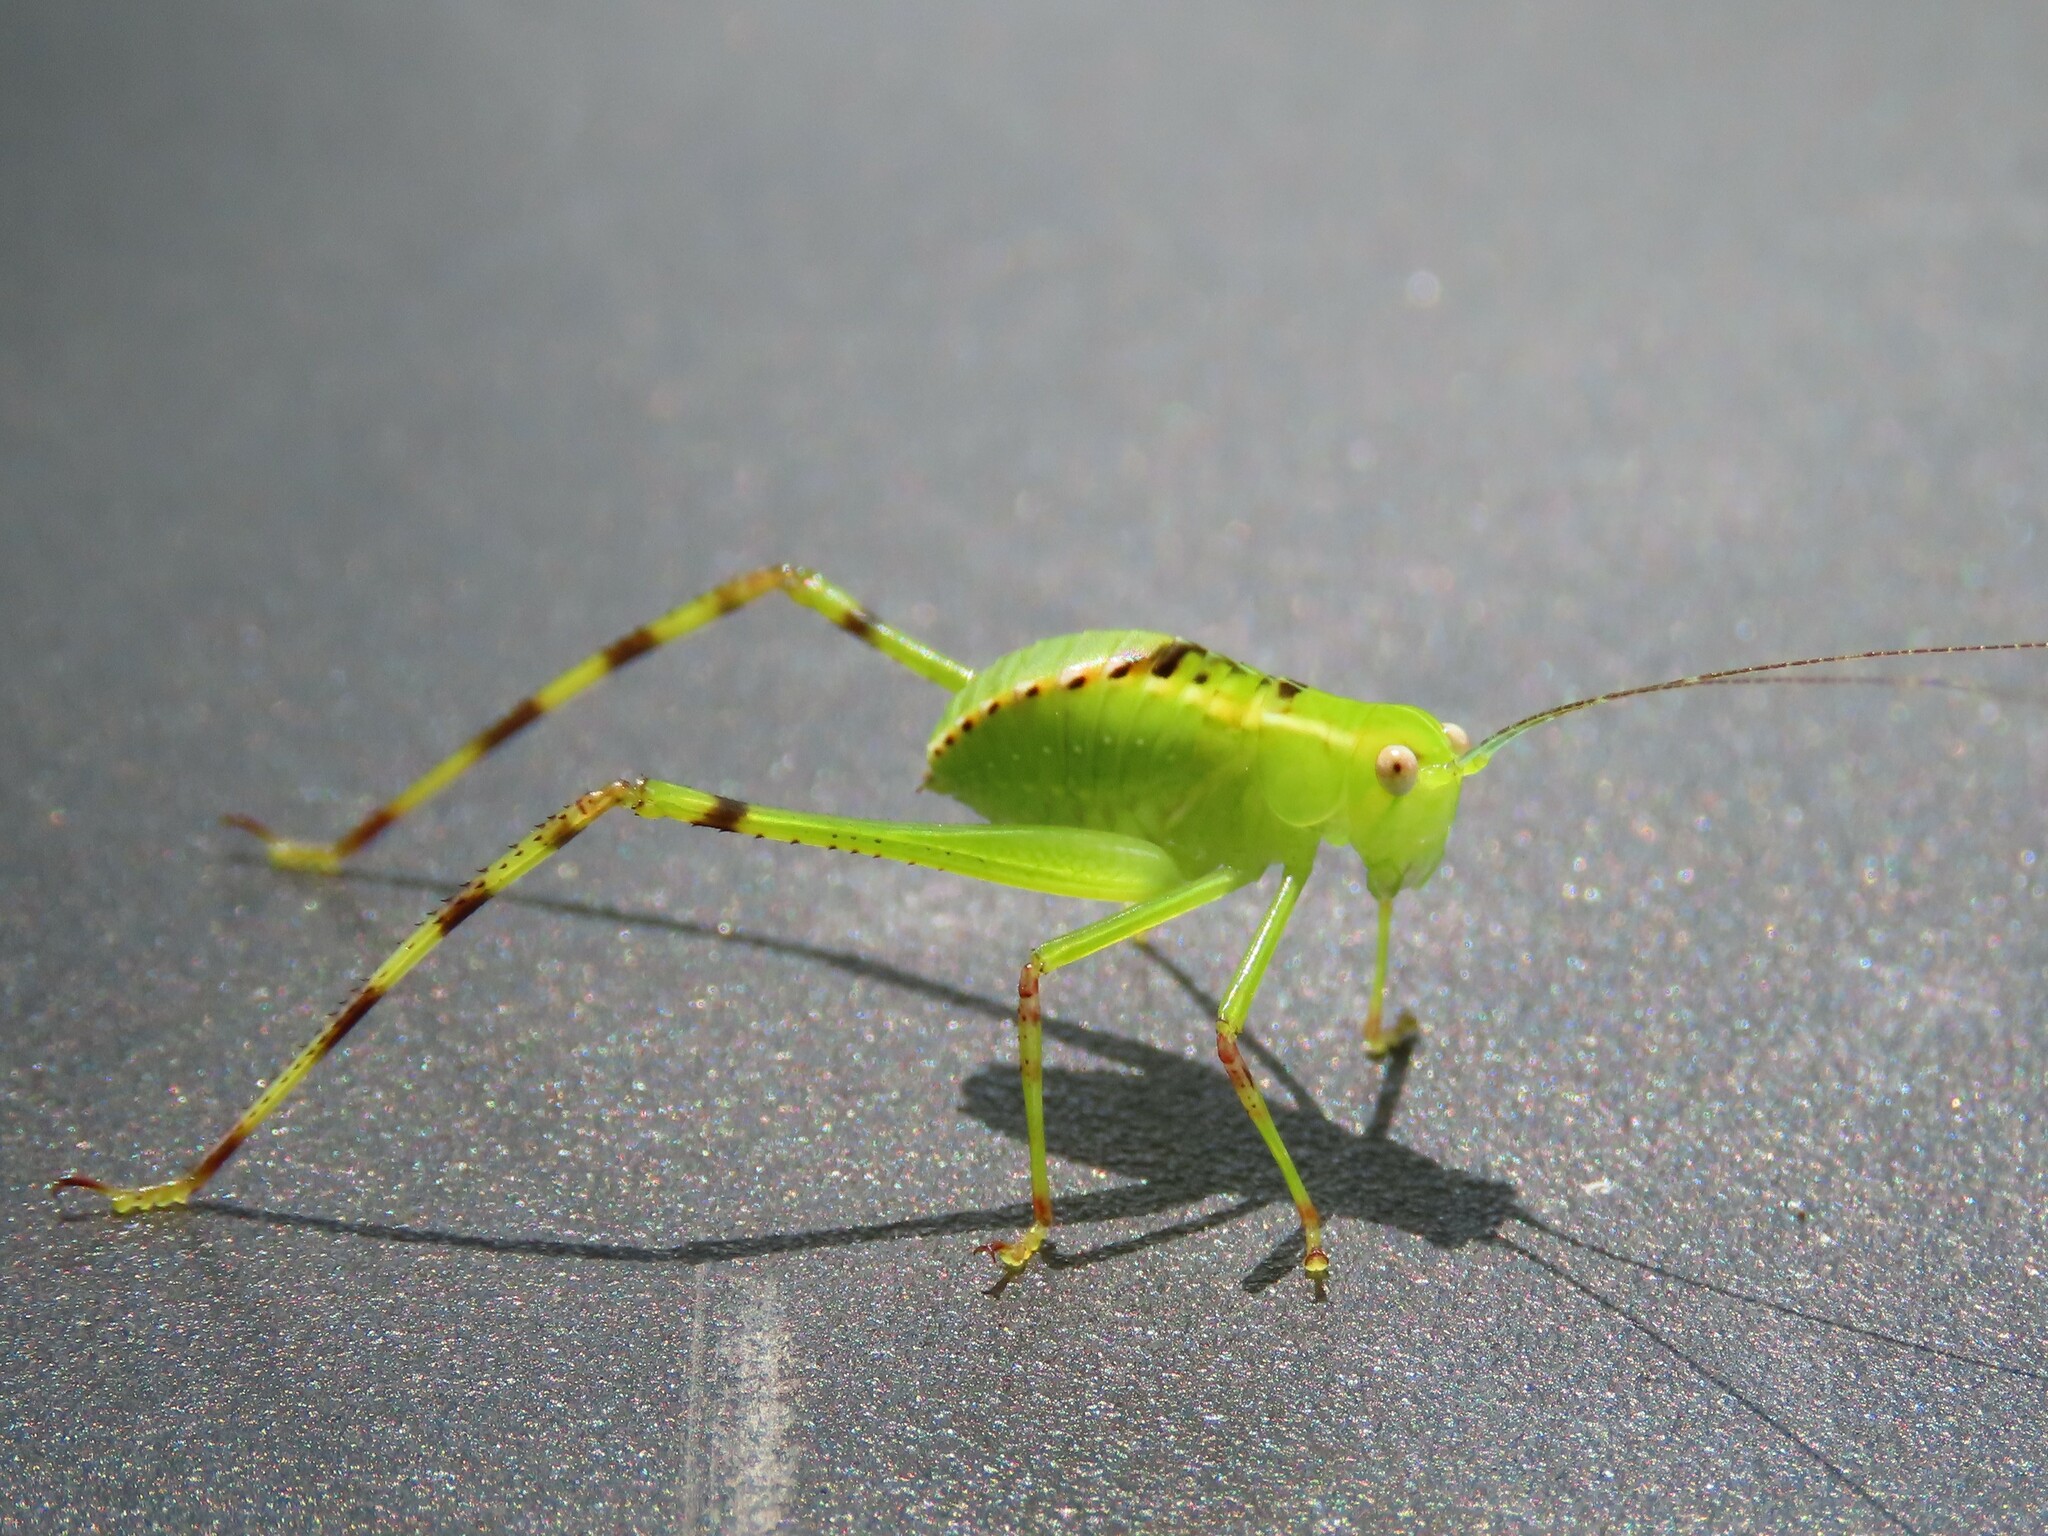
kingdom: Animalia
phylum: Arthropoda
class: Insecta
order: Orthoptera
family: Tettigoniidae
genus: Stilpnochlora
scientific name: Stilpnochlora couloniana
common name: Giant katydid
